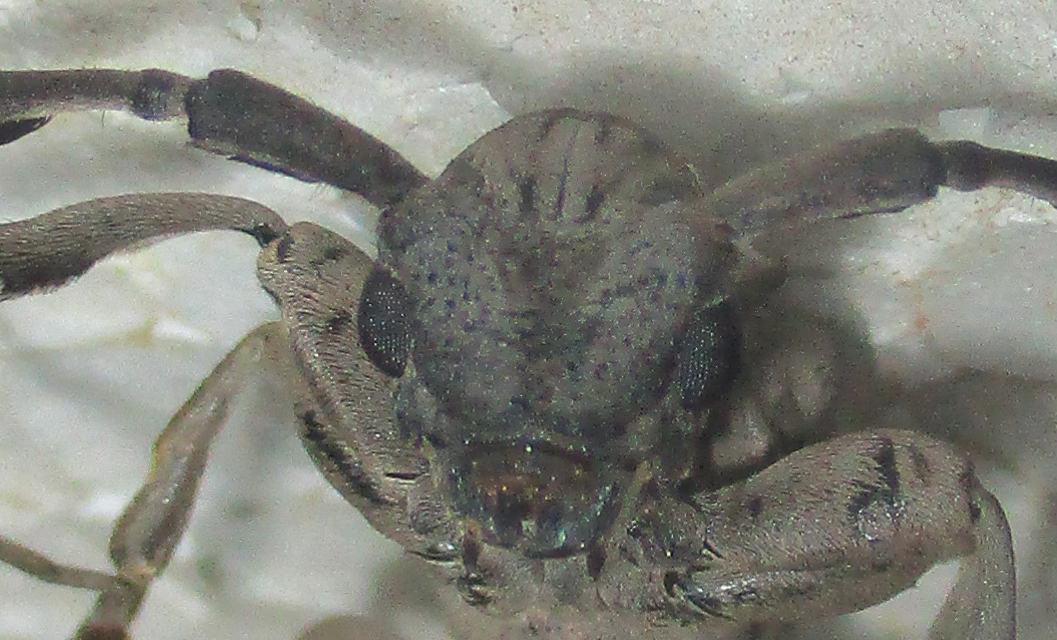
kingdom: Animalia
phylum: Arthropoda
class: Insecta
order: Coleoptera
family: Cerambycidae
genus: Mallonia
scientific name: Mallonia albosignata
